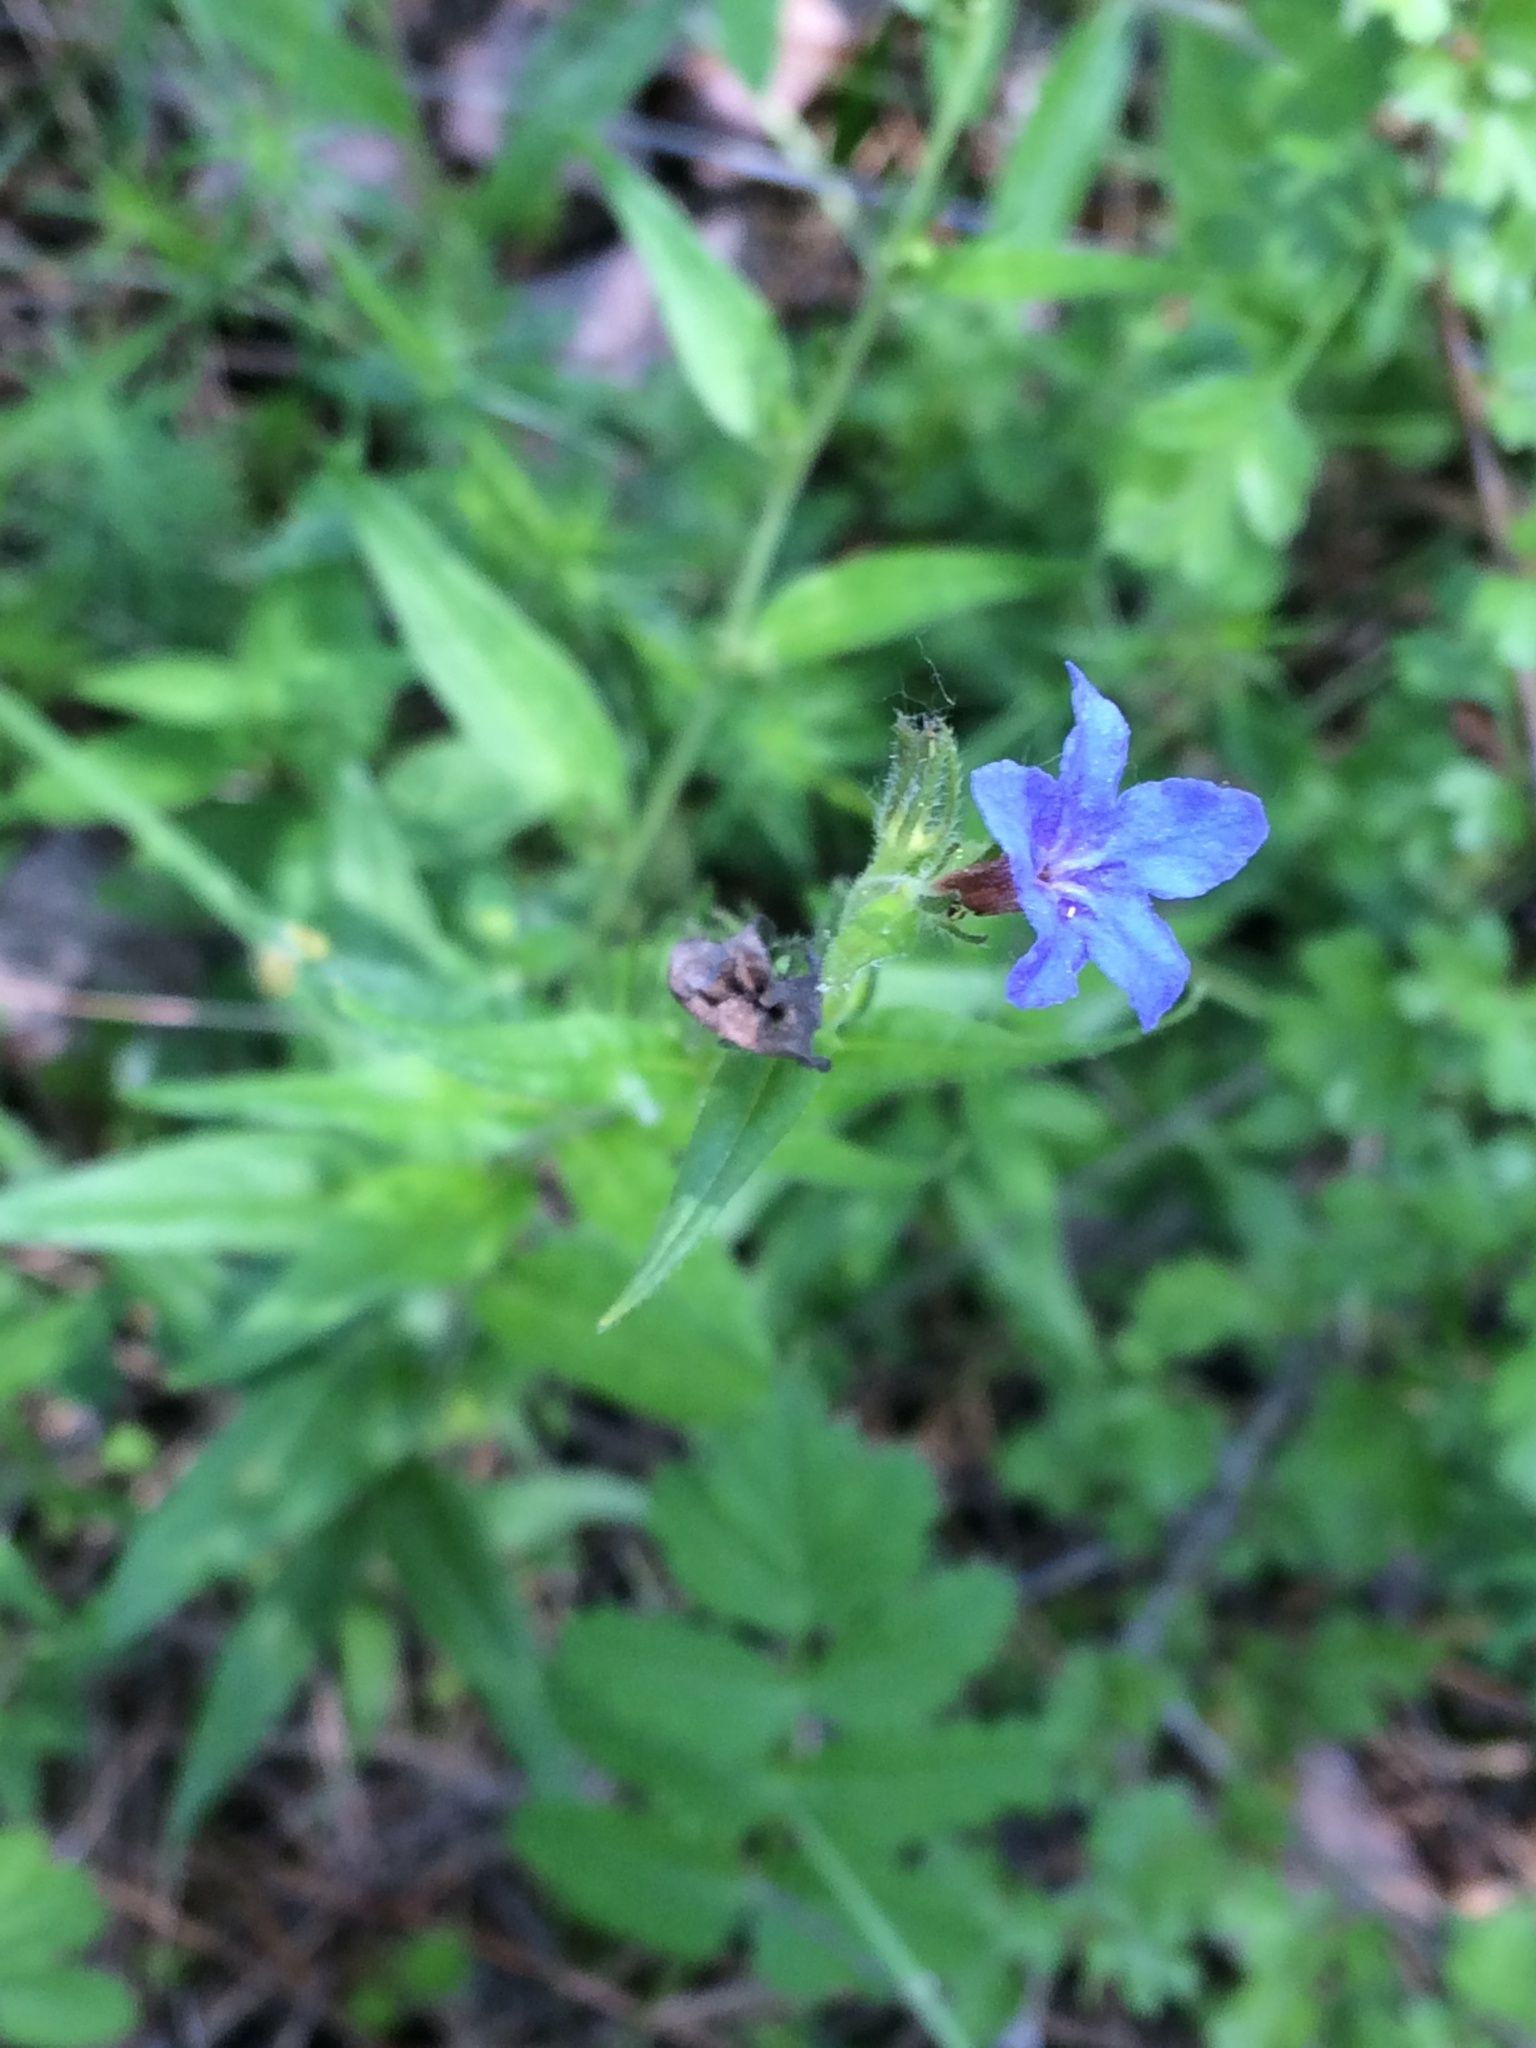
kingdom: Plantae
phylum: Tracheophyta
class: Magnoliopsida
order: Boraginales
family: Boraginaceae
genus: Aegonychon
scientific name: Aegonychon purpurocaeruleum
